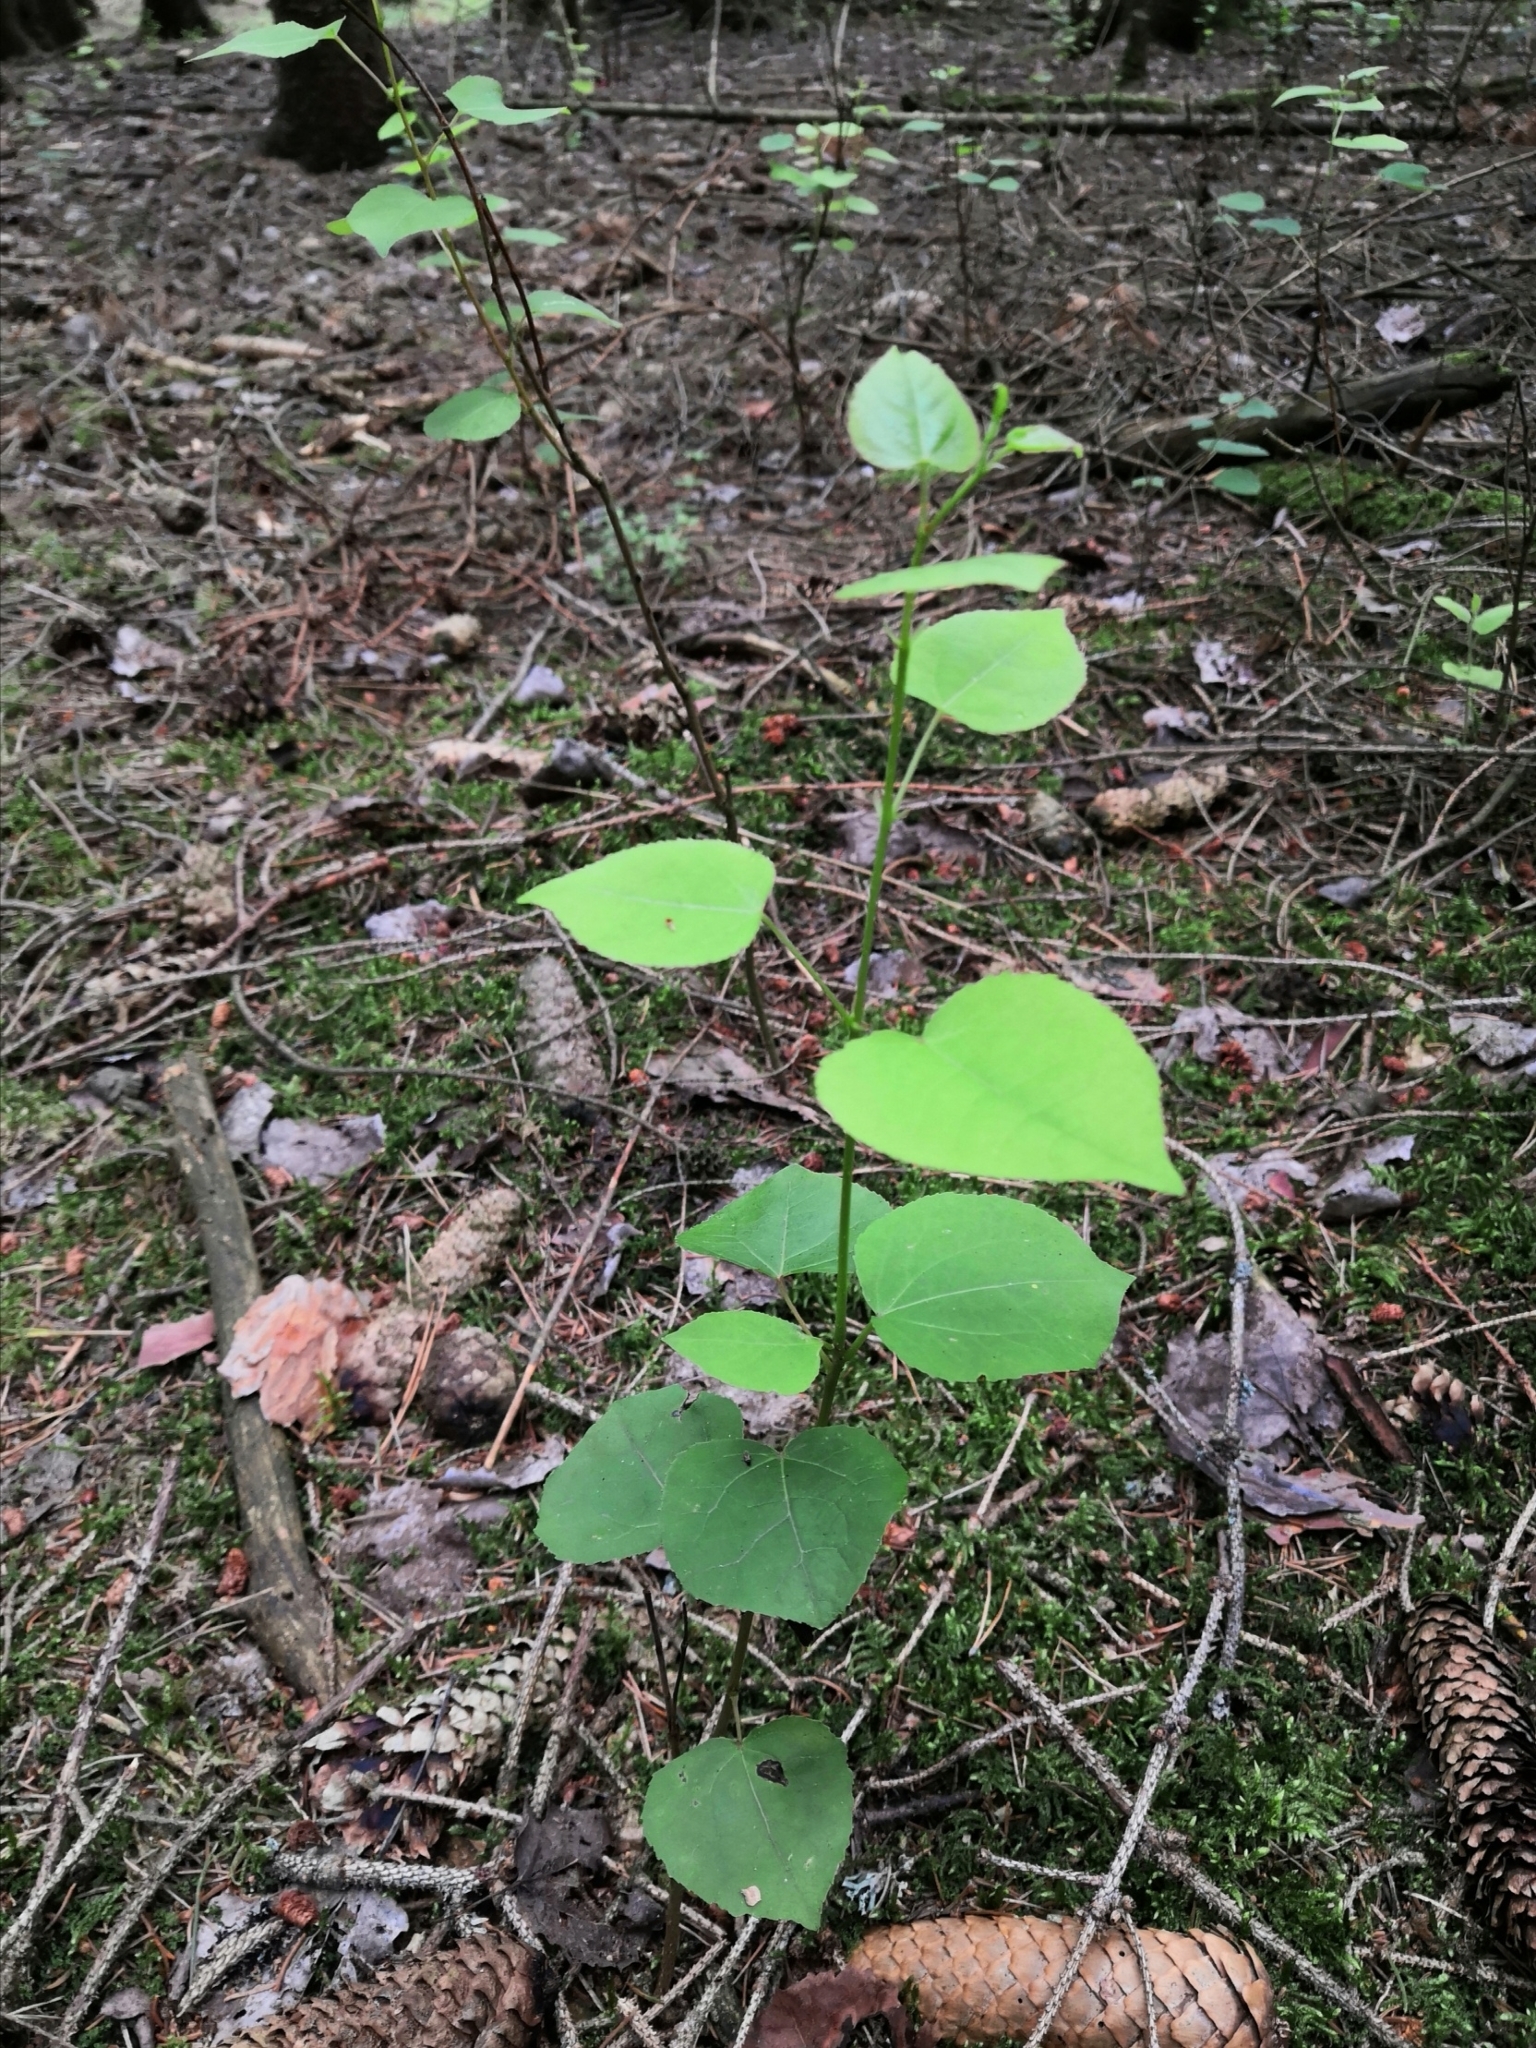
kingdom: Plantae
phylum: Tracheophyta
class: Magnoliopsida
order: Malpighiales
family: Salicaceae
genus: Populus
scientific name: Populus tremula
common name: European aspen
